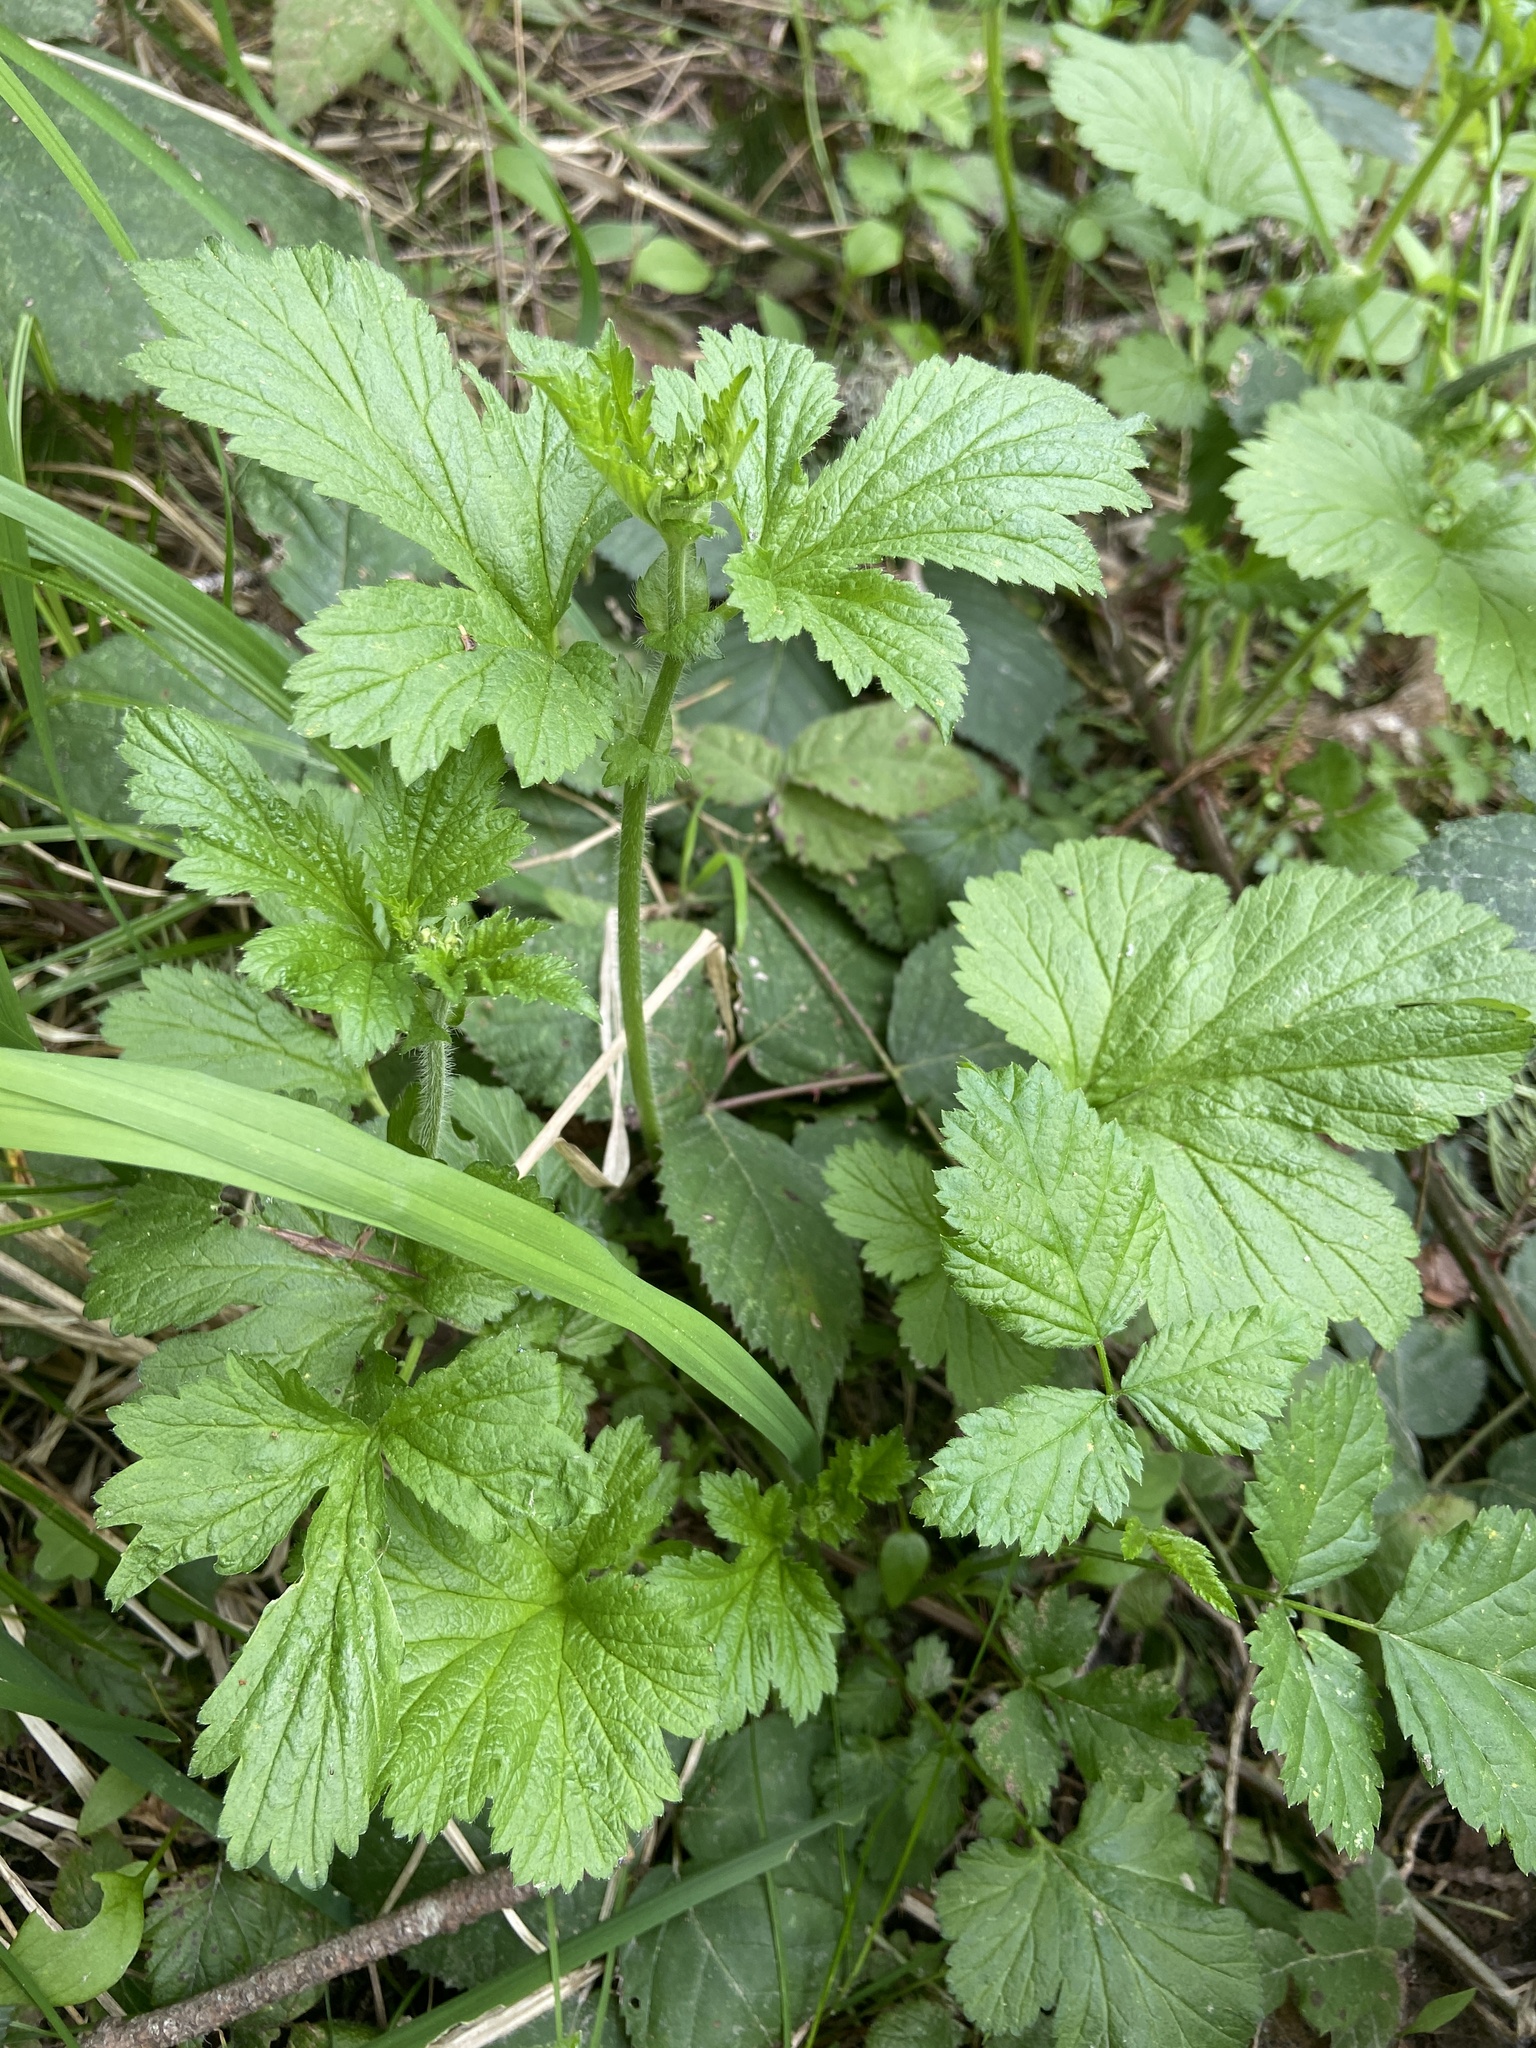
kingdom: Plantae
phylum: Tracheophyta
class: Magnoliopsida
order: Rosales
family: Rosaceae
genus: Geum
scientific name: Geum urbanum
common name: Wood avens
